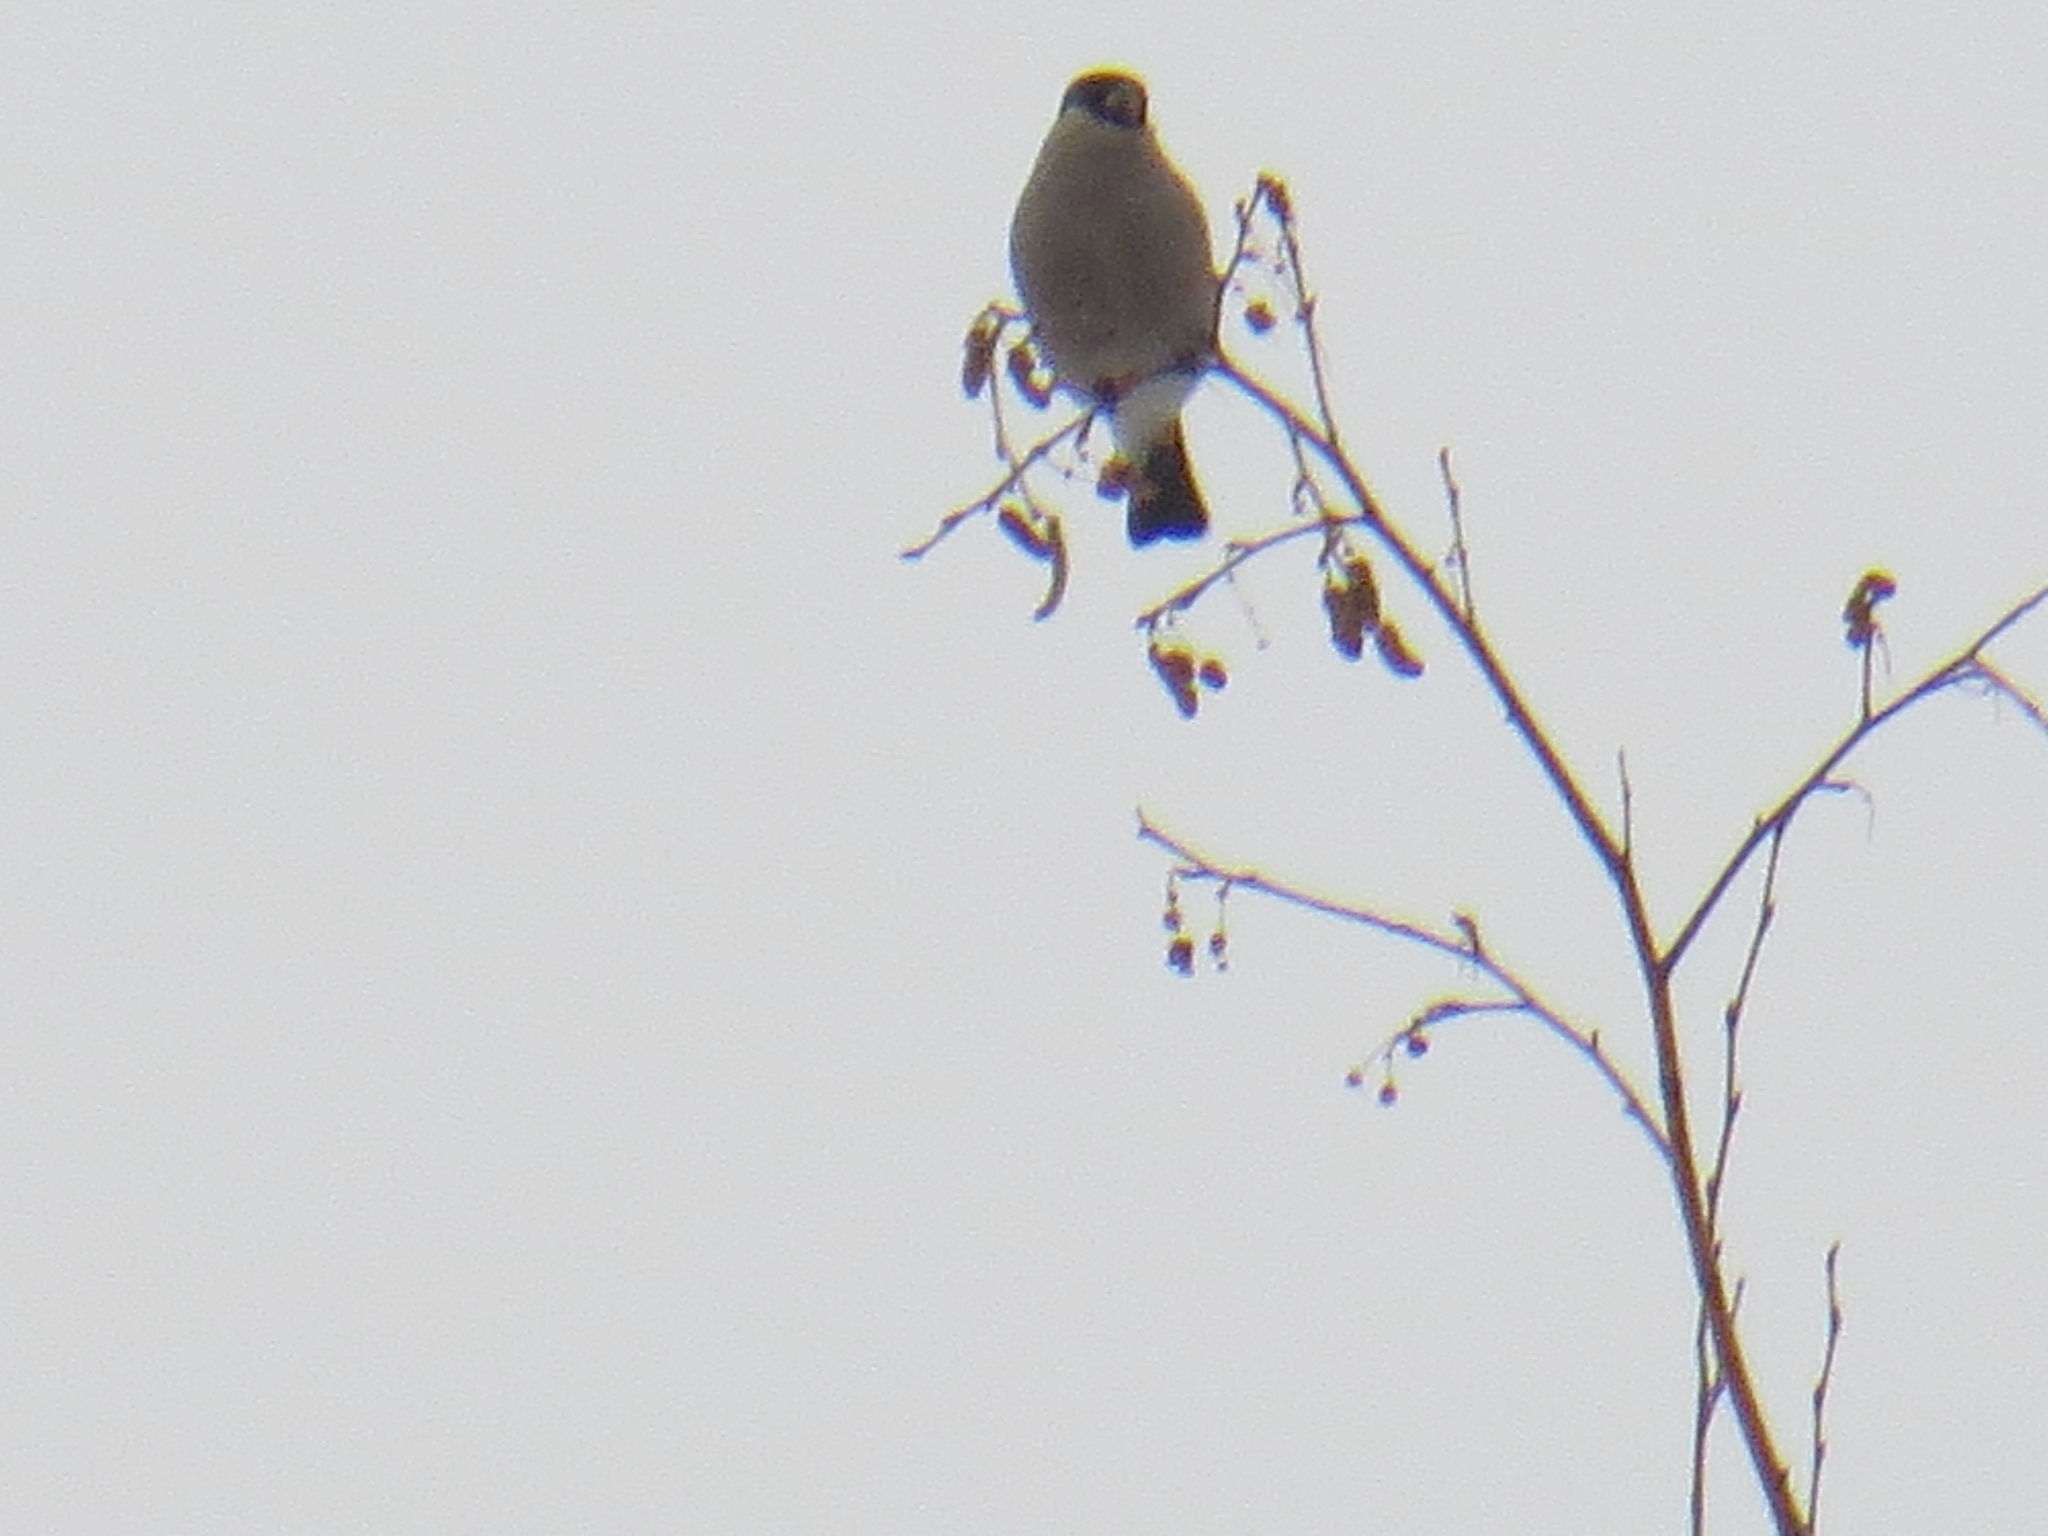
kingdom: Animalia
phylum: Chordata
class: Aves
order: Passeriformes
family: Fringillidae
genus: Pyrrhula
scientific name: Pyrrhula pyrrhula
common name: Eurasian bullfinch
